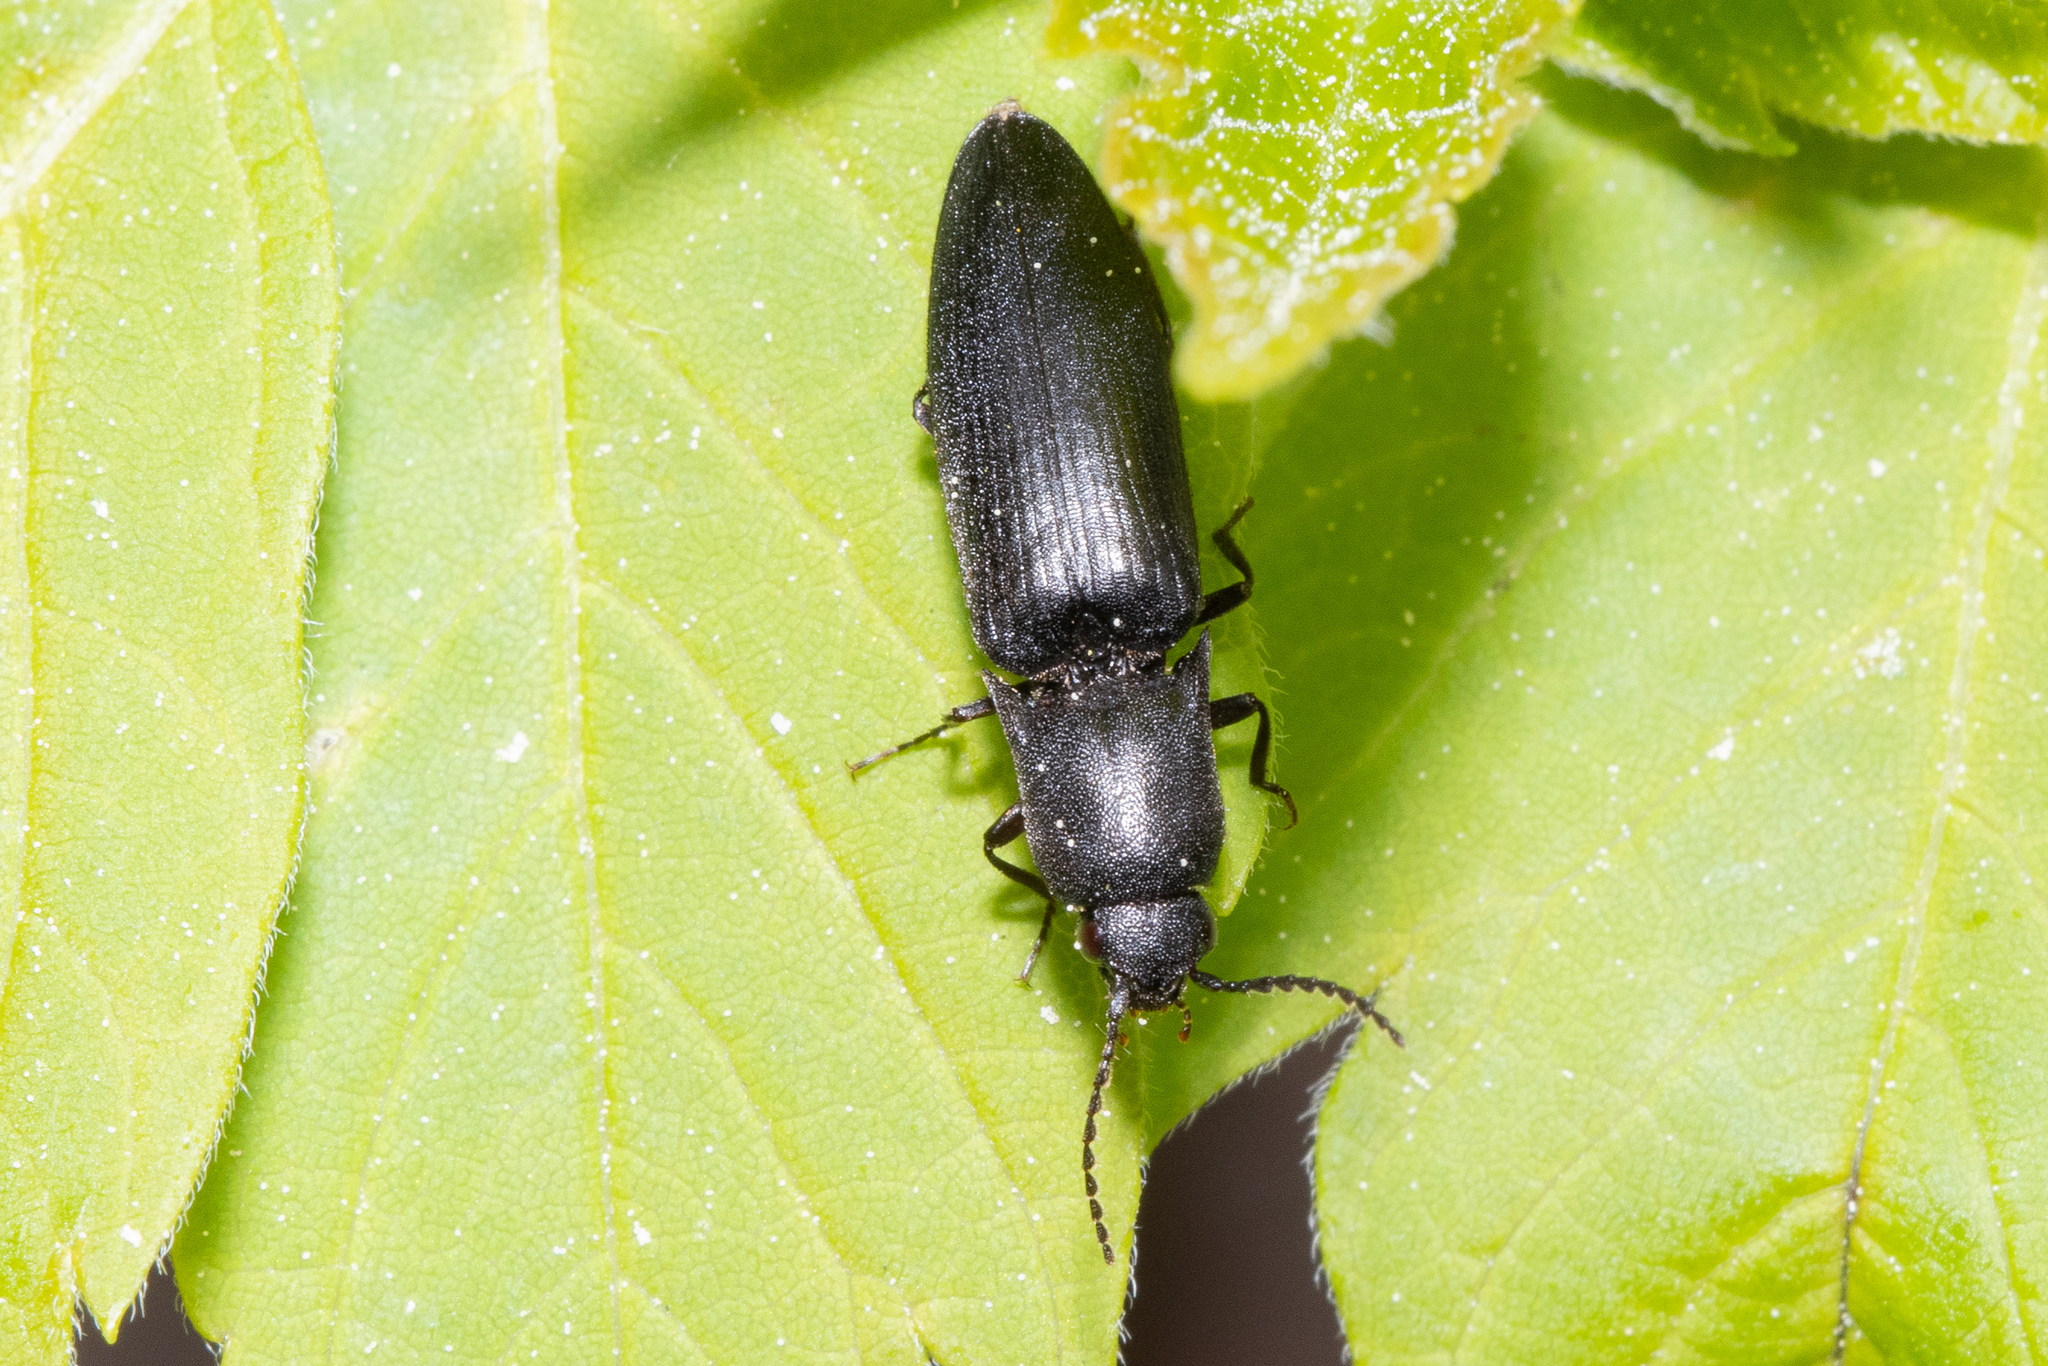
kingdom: Animalia
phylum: Arthropoda
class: Insecta
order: Coleoptera
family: Elateridae
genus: Ectinus
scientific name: Ectinus aterrimus
